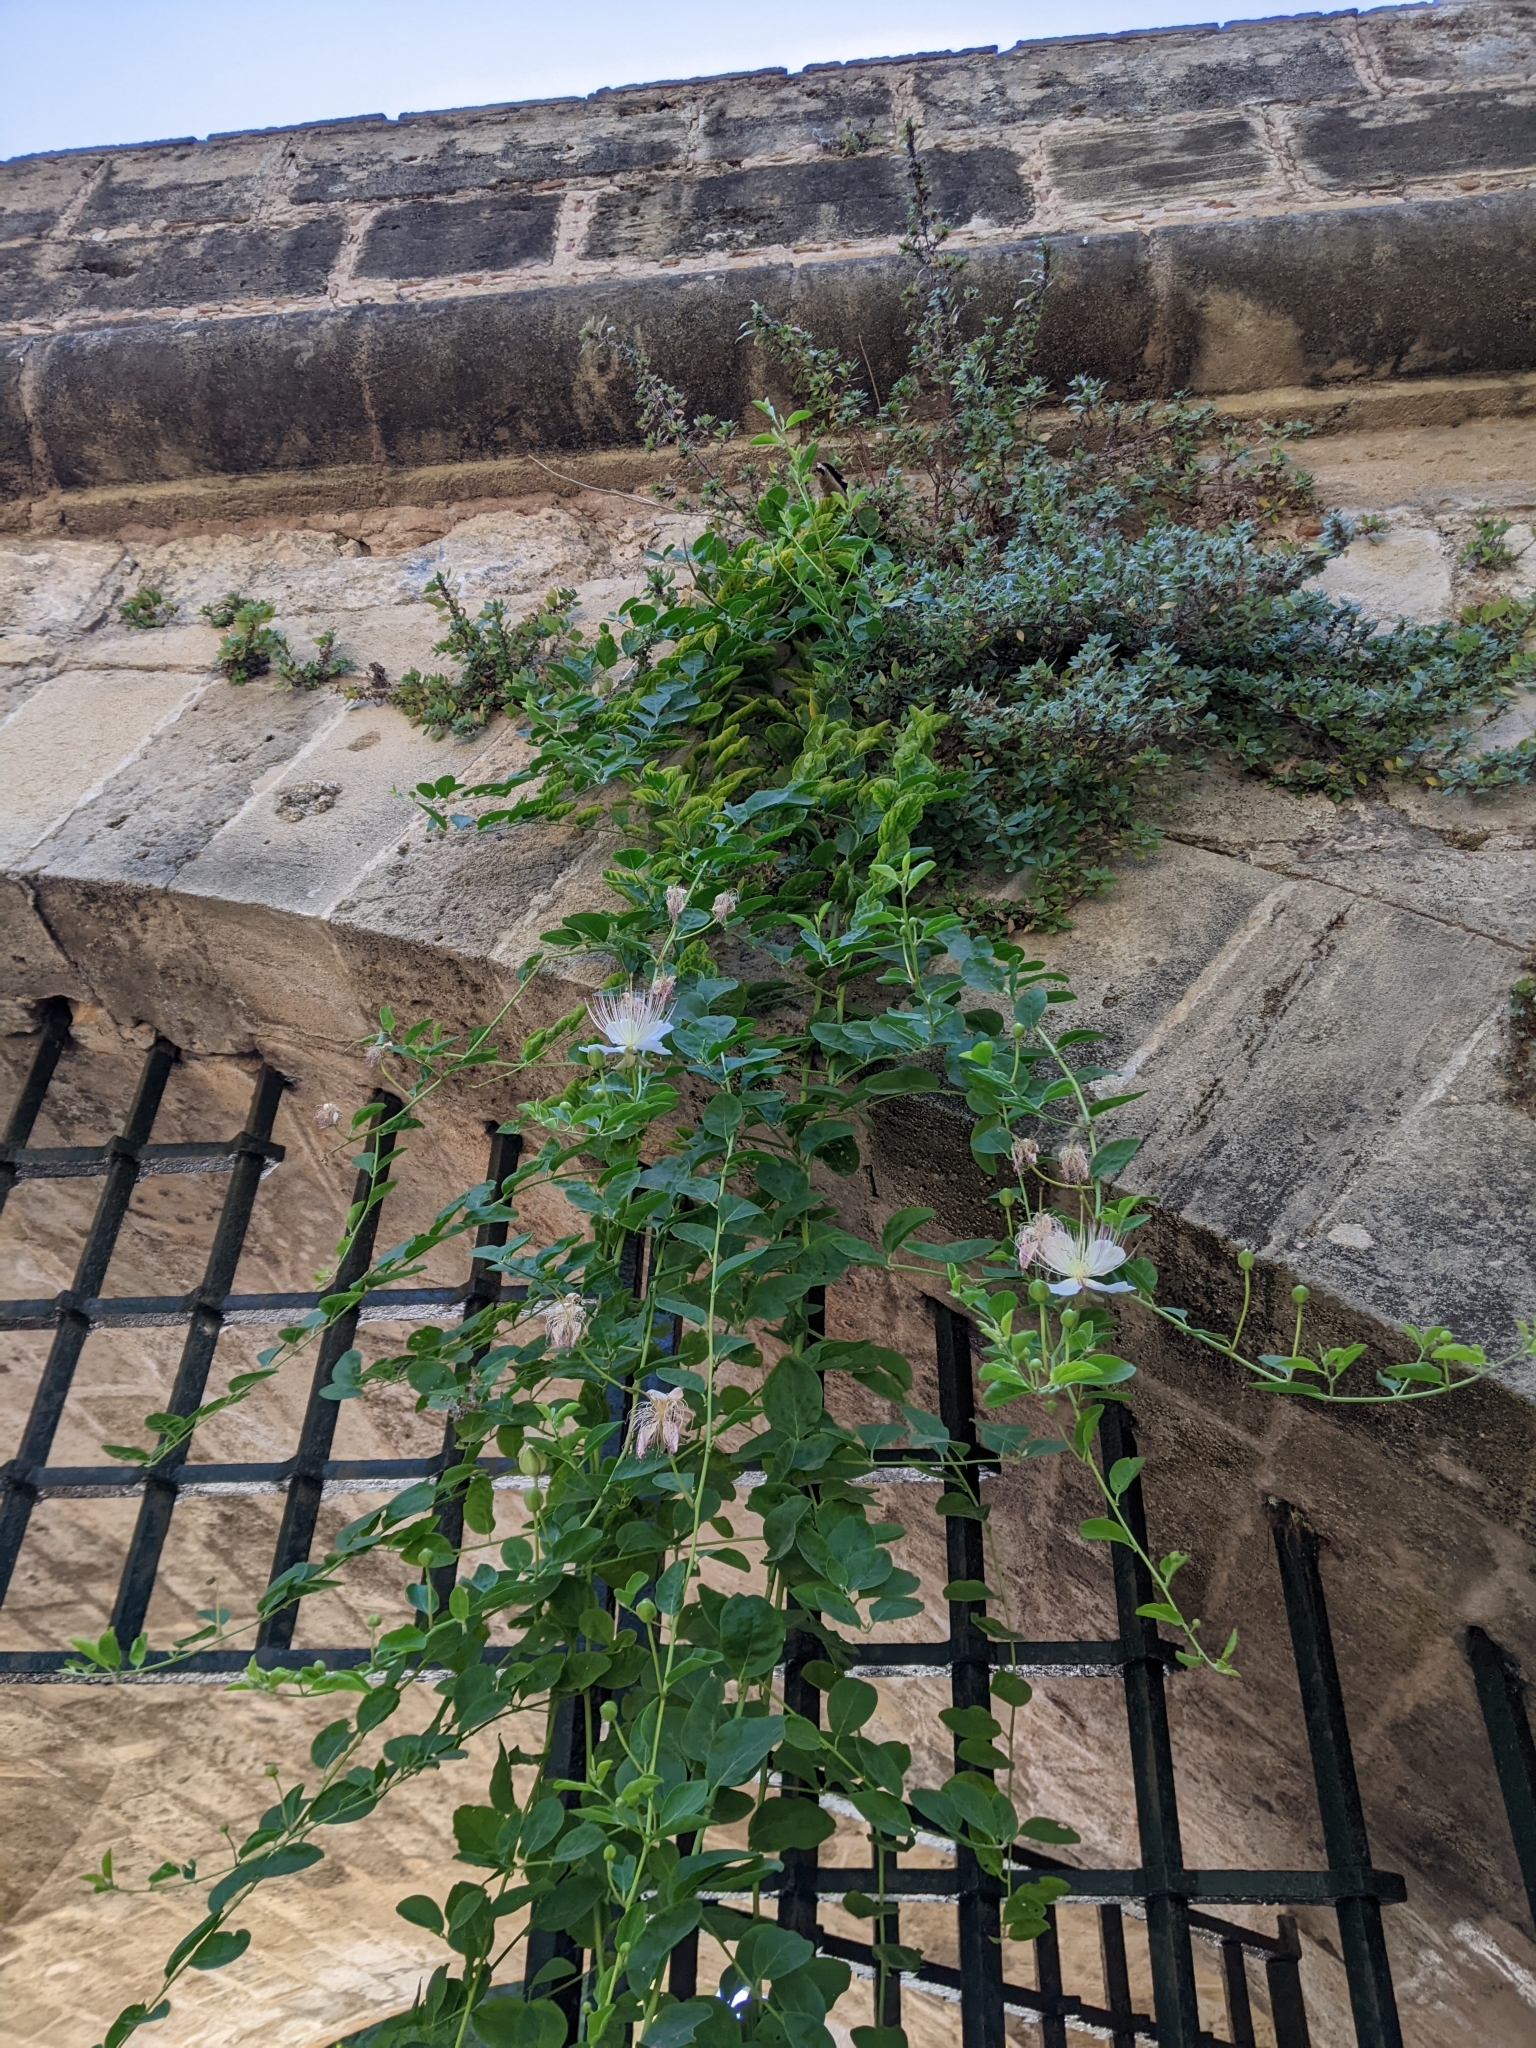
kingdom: Plantae
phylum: Tracheophyta
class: Magnoliopsida
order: Brassicales
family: Capparaceae
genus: Capparis
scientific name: Capparis spinosa
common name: Caper
